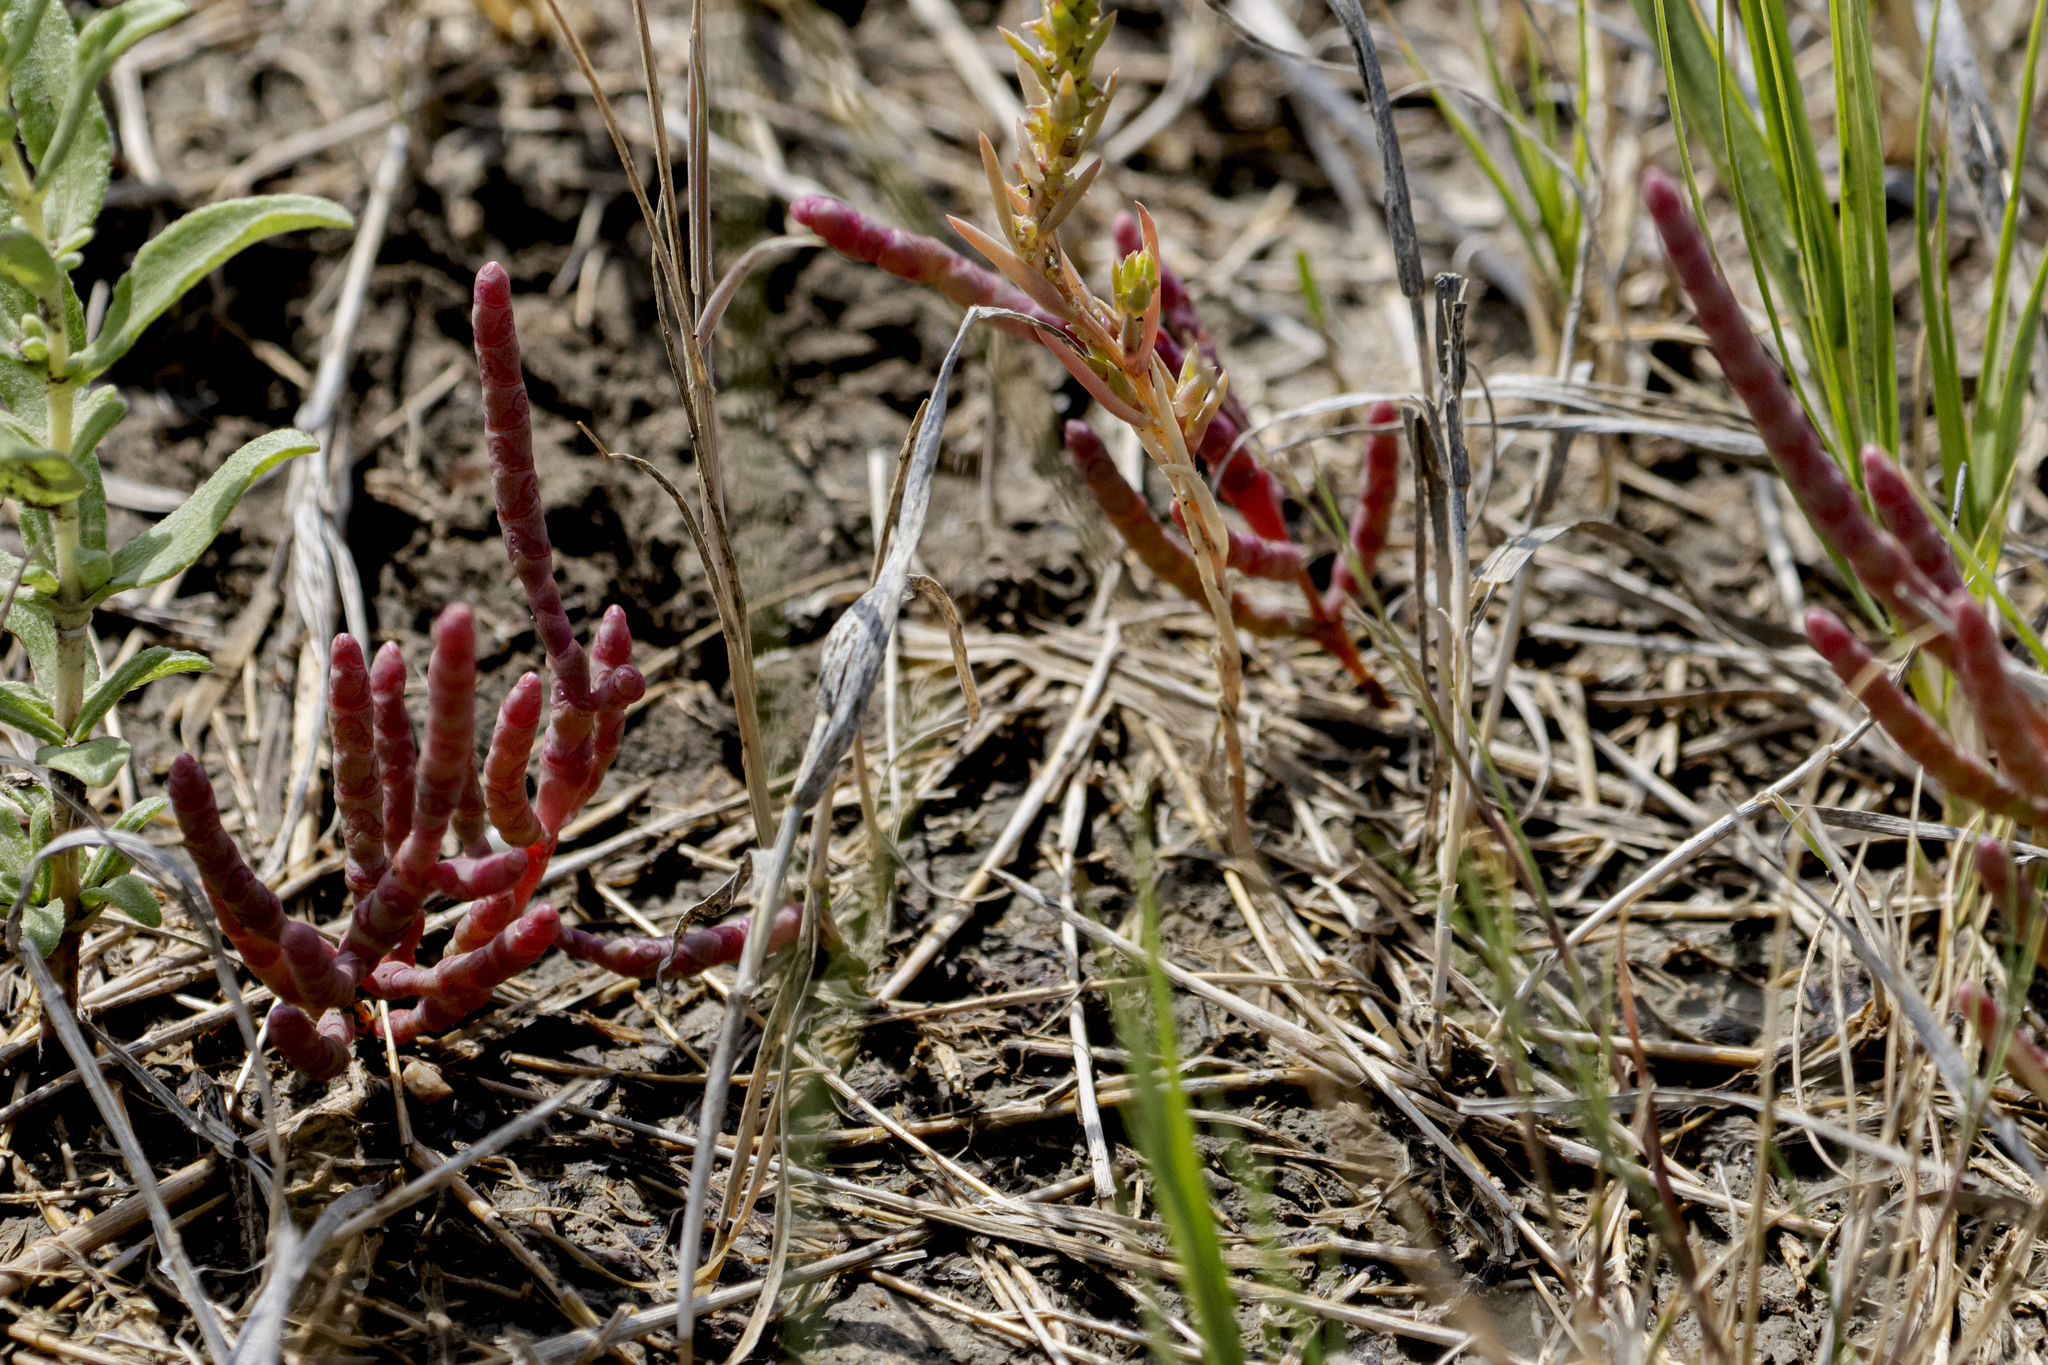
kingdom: Plantae
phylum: Tracheophyta
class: Magnoliopsida
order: Caryophyllales
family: Amaranthaceae
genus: Salicornia
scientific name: Salicornia rubra
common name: Red glasswort
